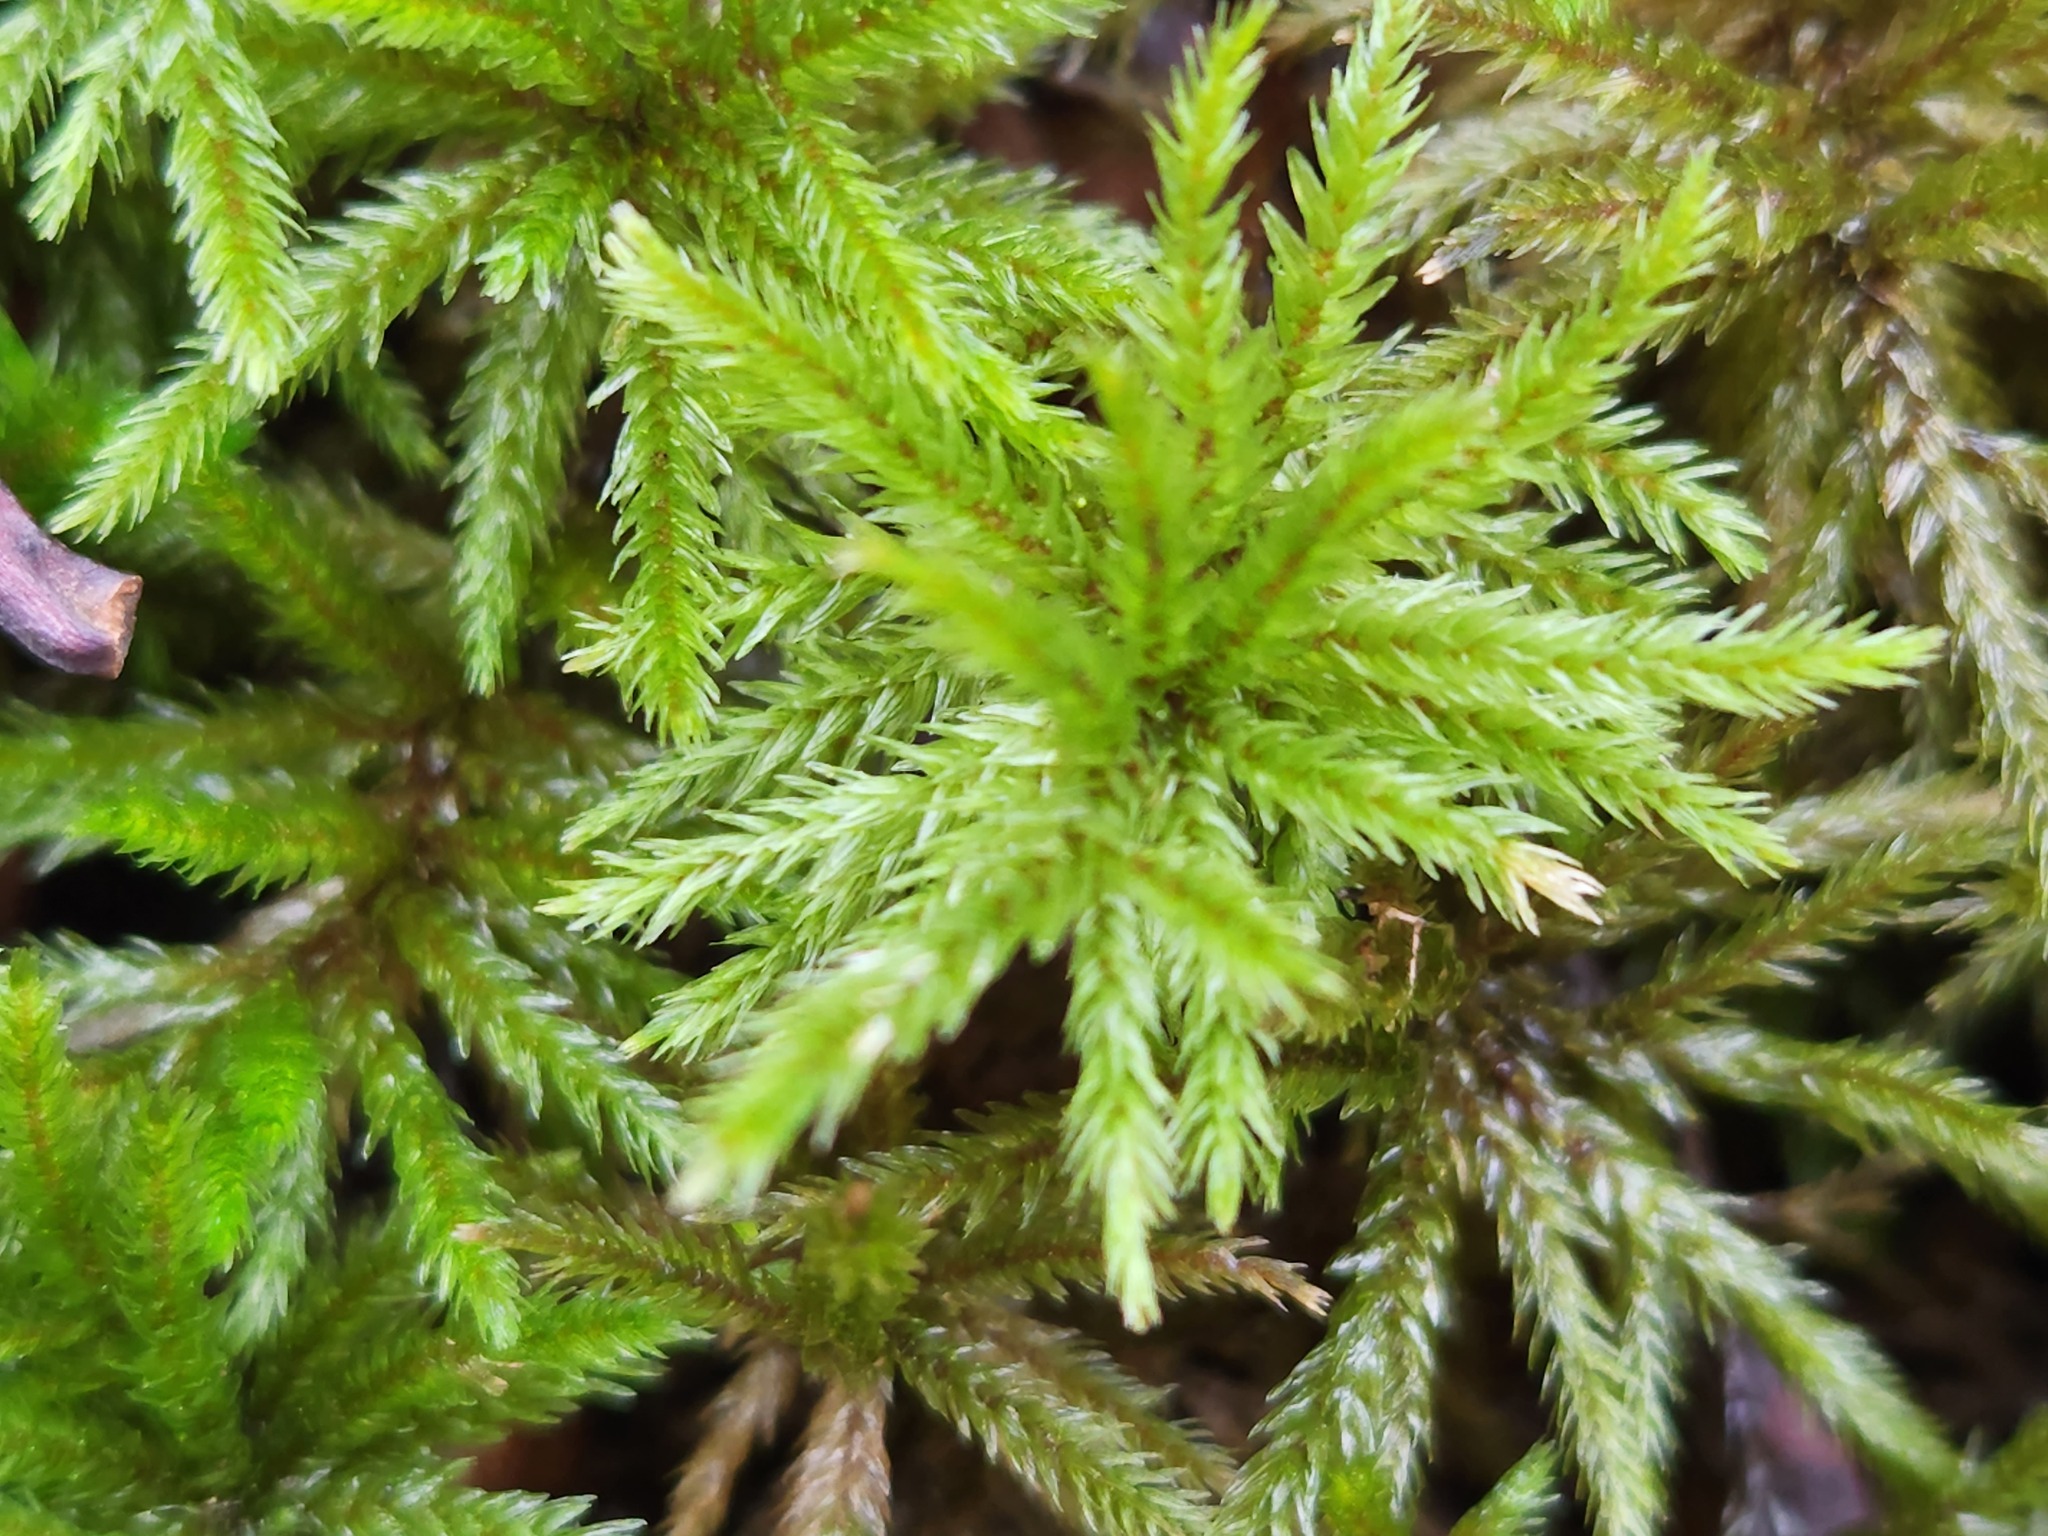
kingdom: Plantae
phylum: Bryophyta
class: Bryopsida
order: Hypnales
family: Climaciaceae
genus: Climacium
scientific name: Climacium americanum
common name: American tree moss
